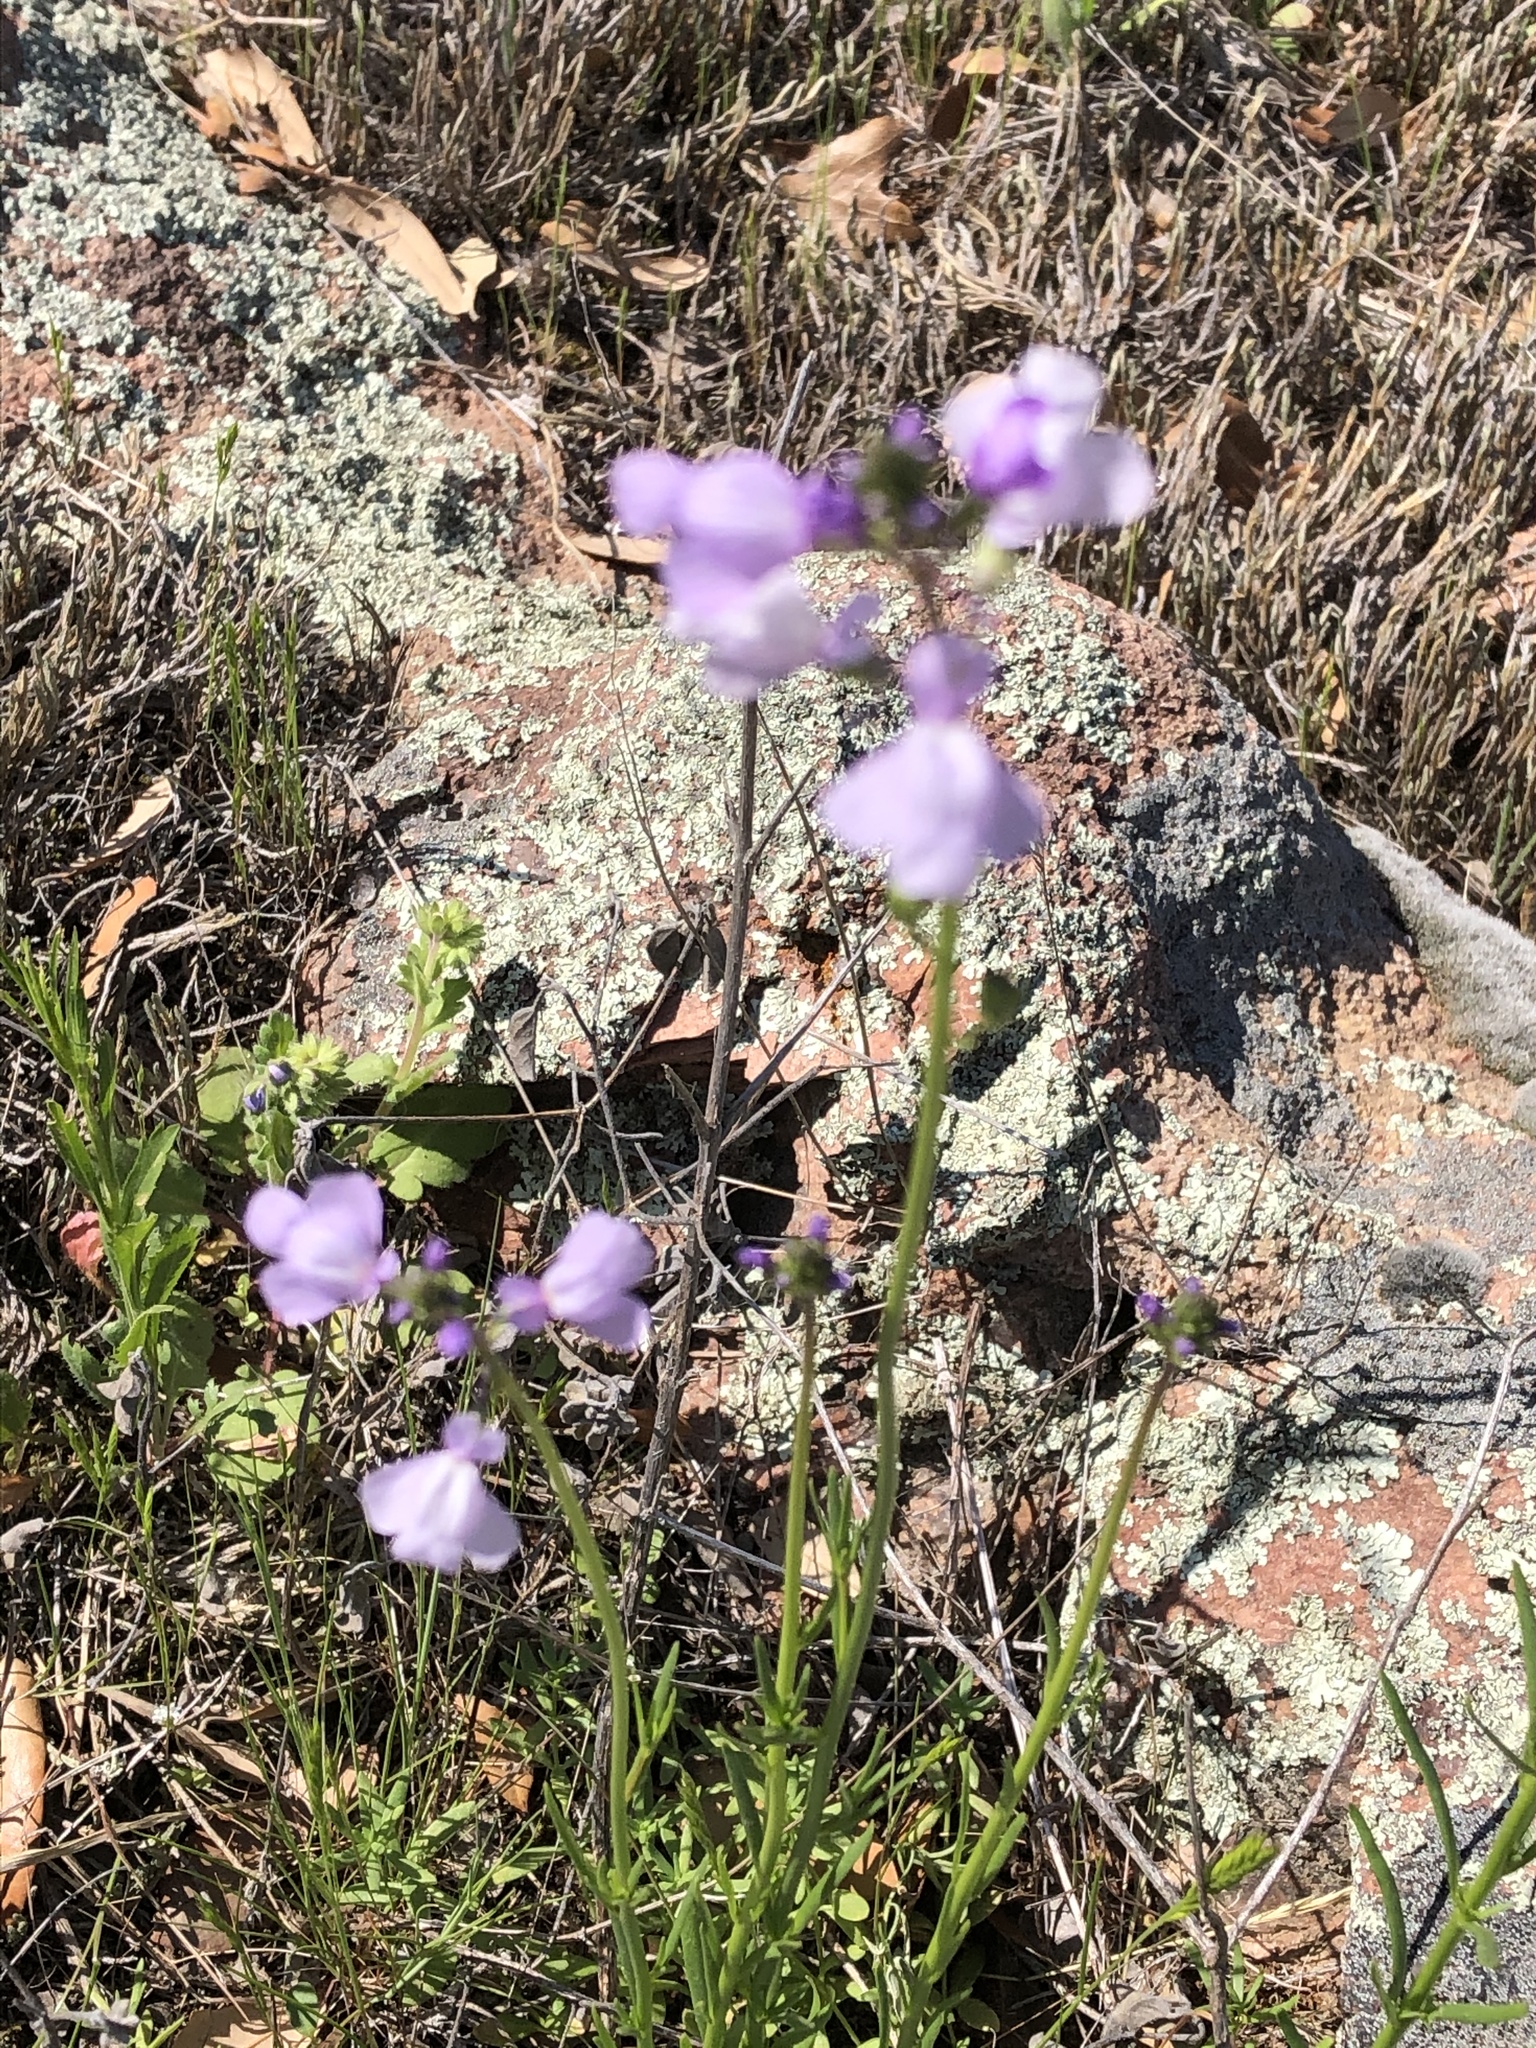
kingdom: Plantae
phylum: Tracheophyta
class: Magnoliopsida
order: Lamiales
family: Plantaginaceae
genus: Nuttallanthus
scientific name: Nuttallanthus texanus
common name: Texas toadflax
